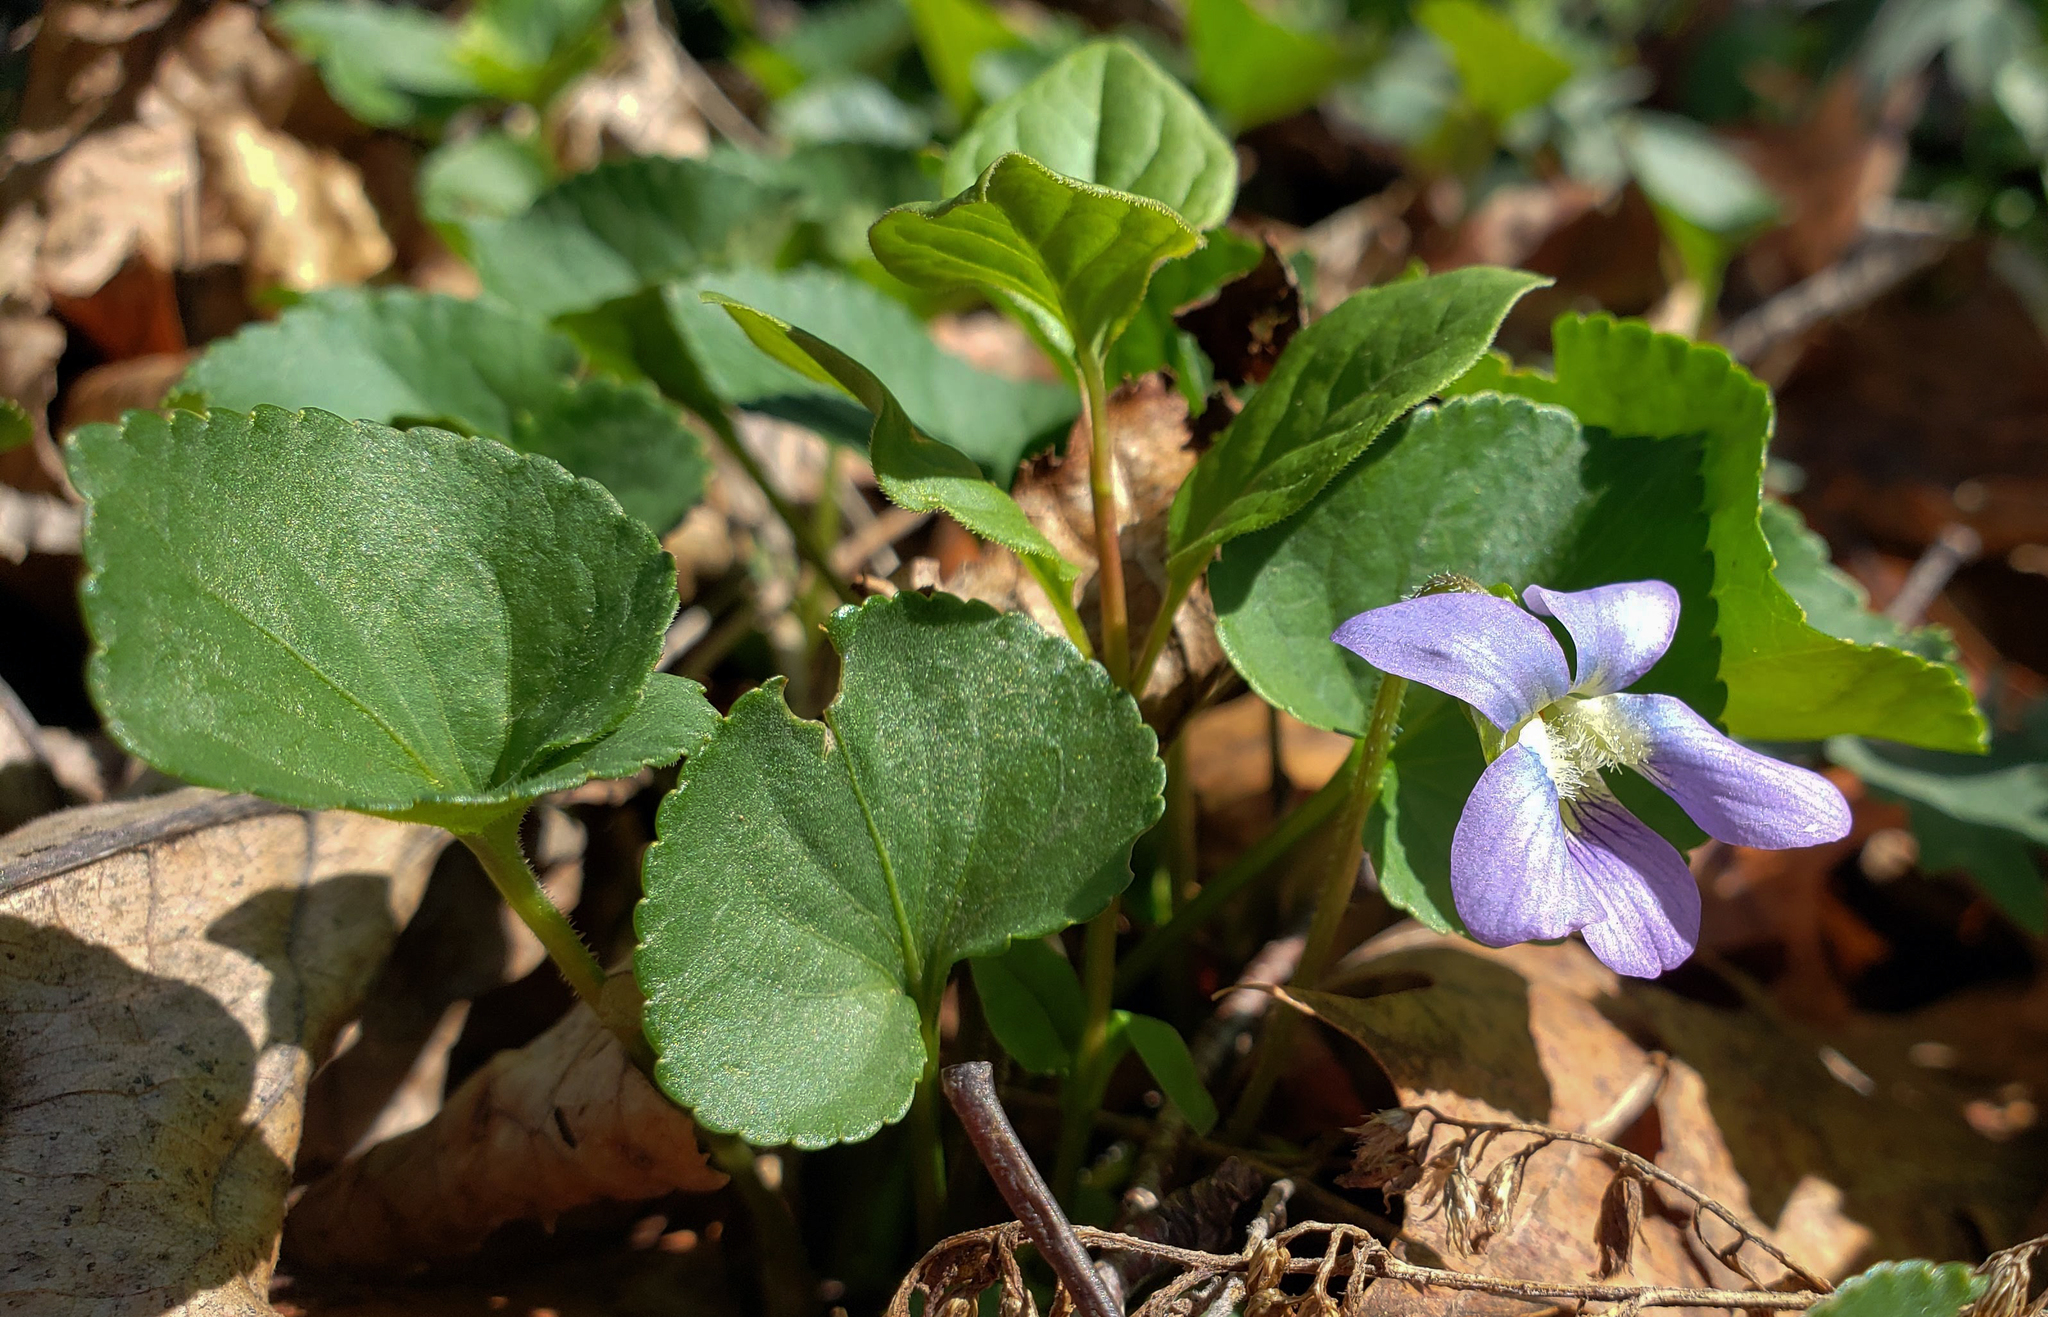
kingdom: Plantae
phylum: Tracheophyta
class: Magnoliopsida
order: Malpighiales
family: Violaceae
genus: Viola
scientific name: Viola sororia
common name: Dooryard violet
